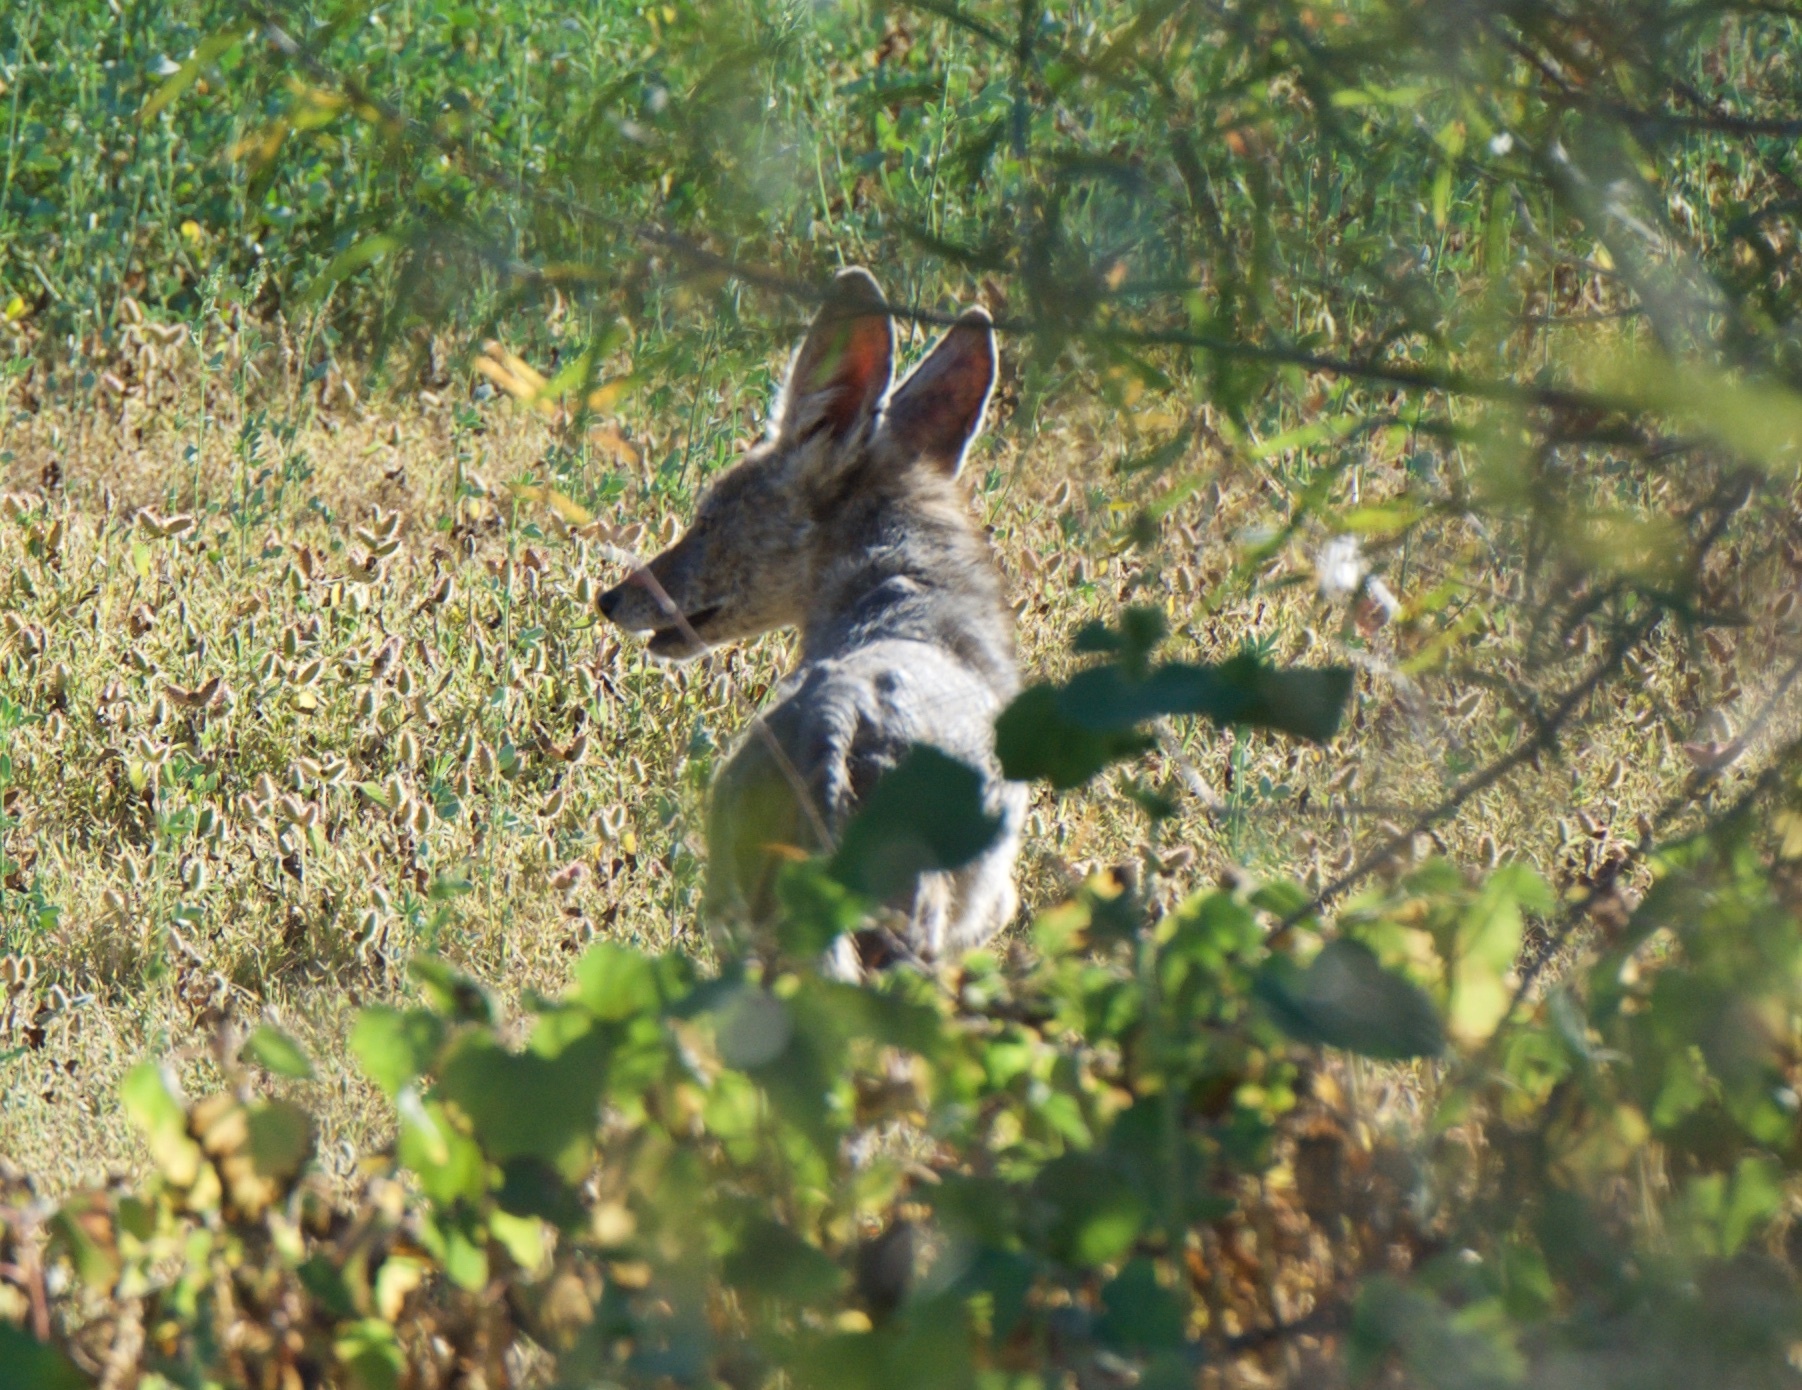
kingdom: Animalia
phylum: Chordata
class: Mammalia
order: Carnivora
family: Canidae
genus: Canis
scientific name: Canis latrans
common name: Coyote
